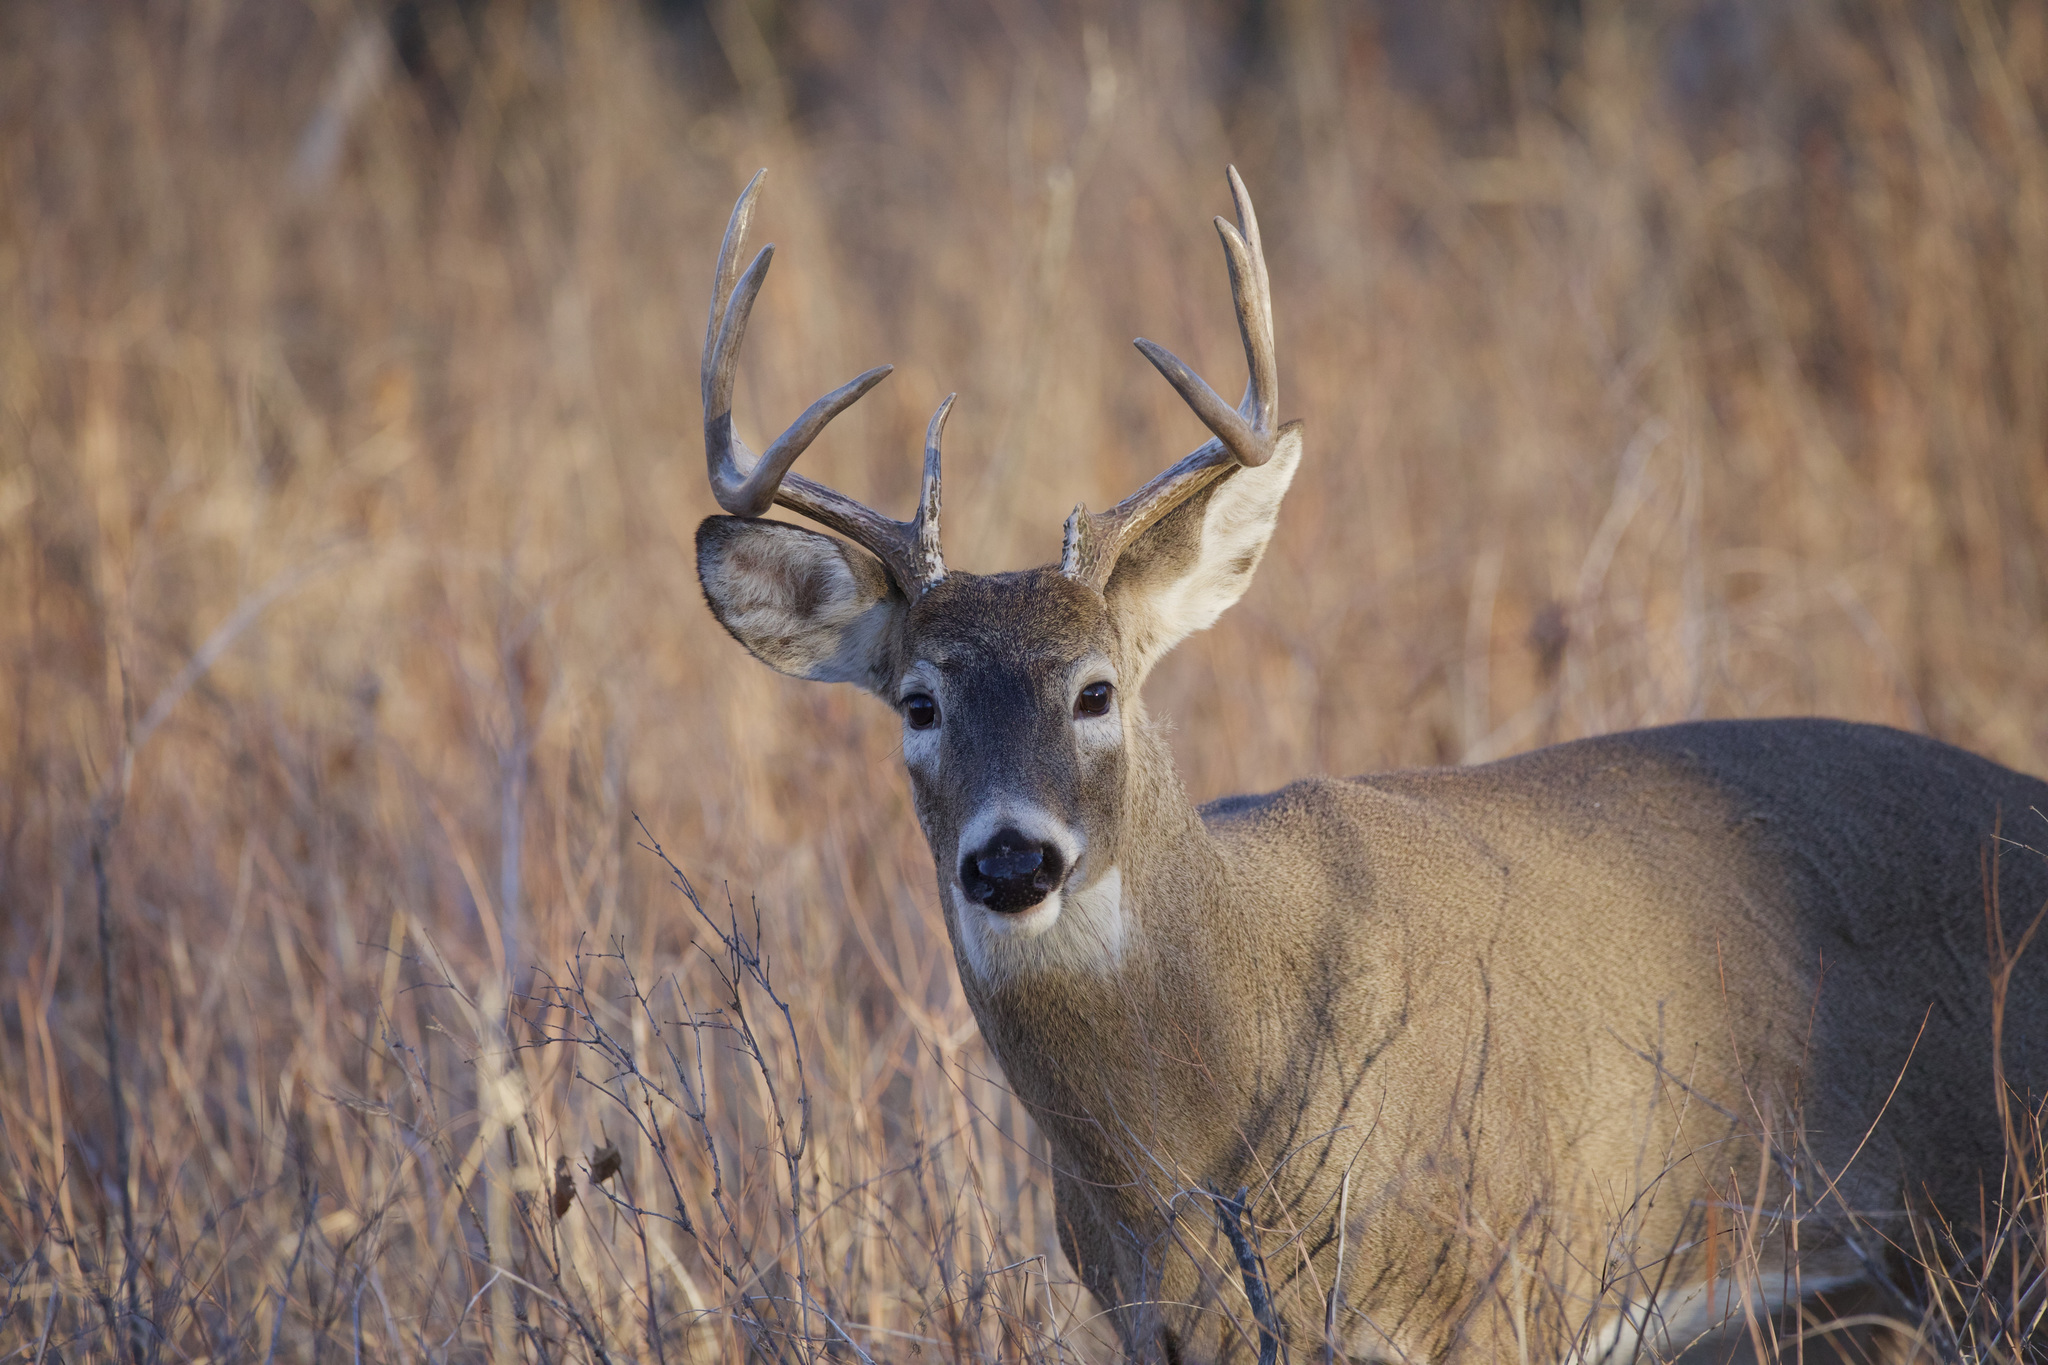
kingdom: Animalia
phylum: Chordata
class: Mammalia
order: Artiodactyla
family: Cervidae
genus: Odocoileus
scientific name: Odocoileus virginianus
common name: White-tailed deer
